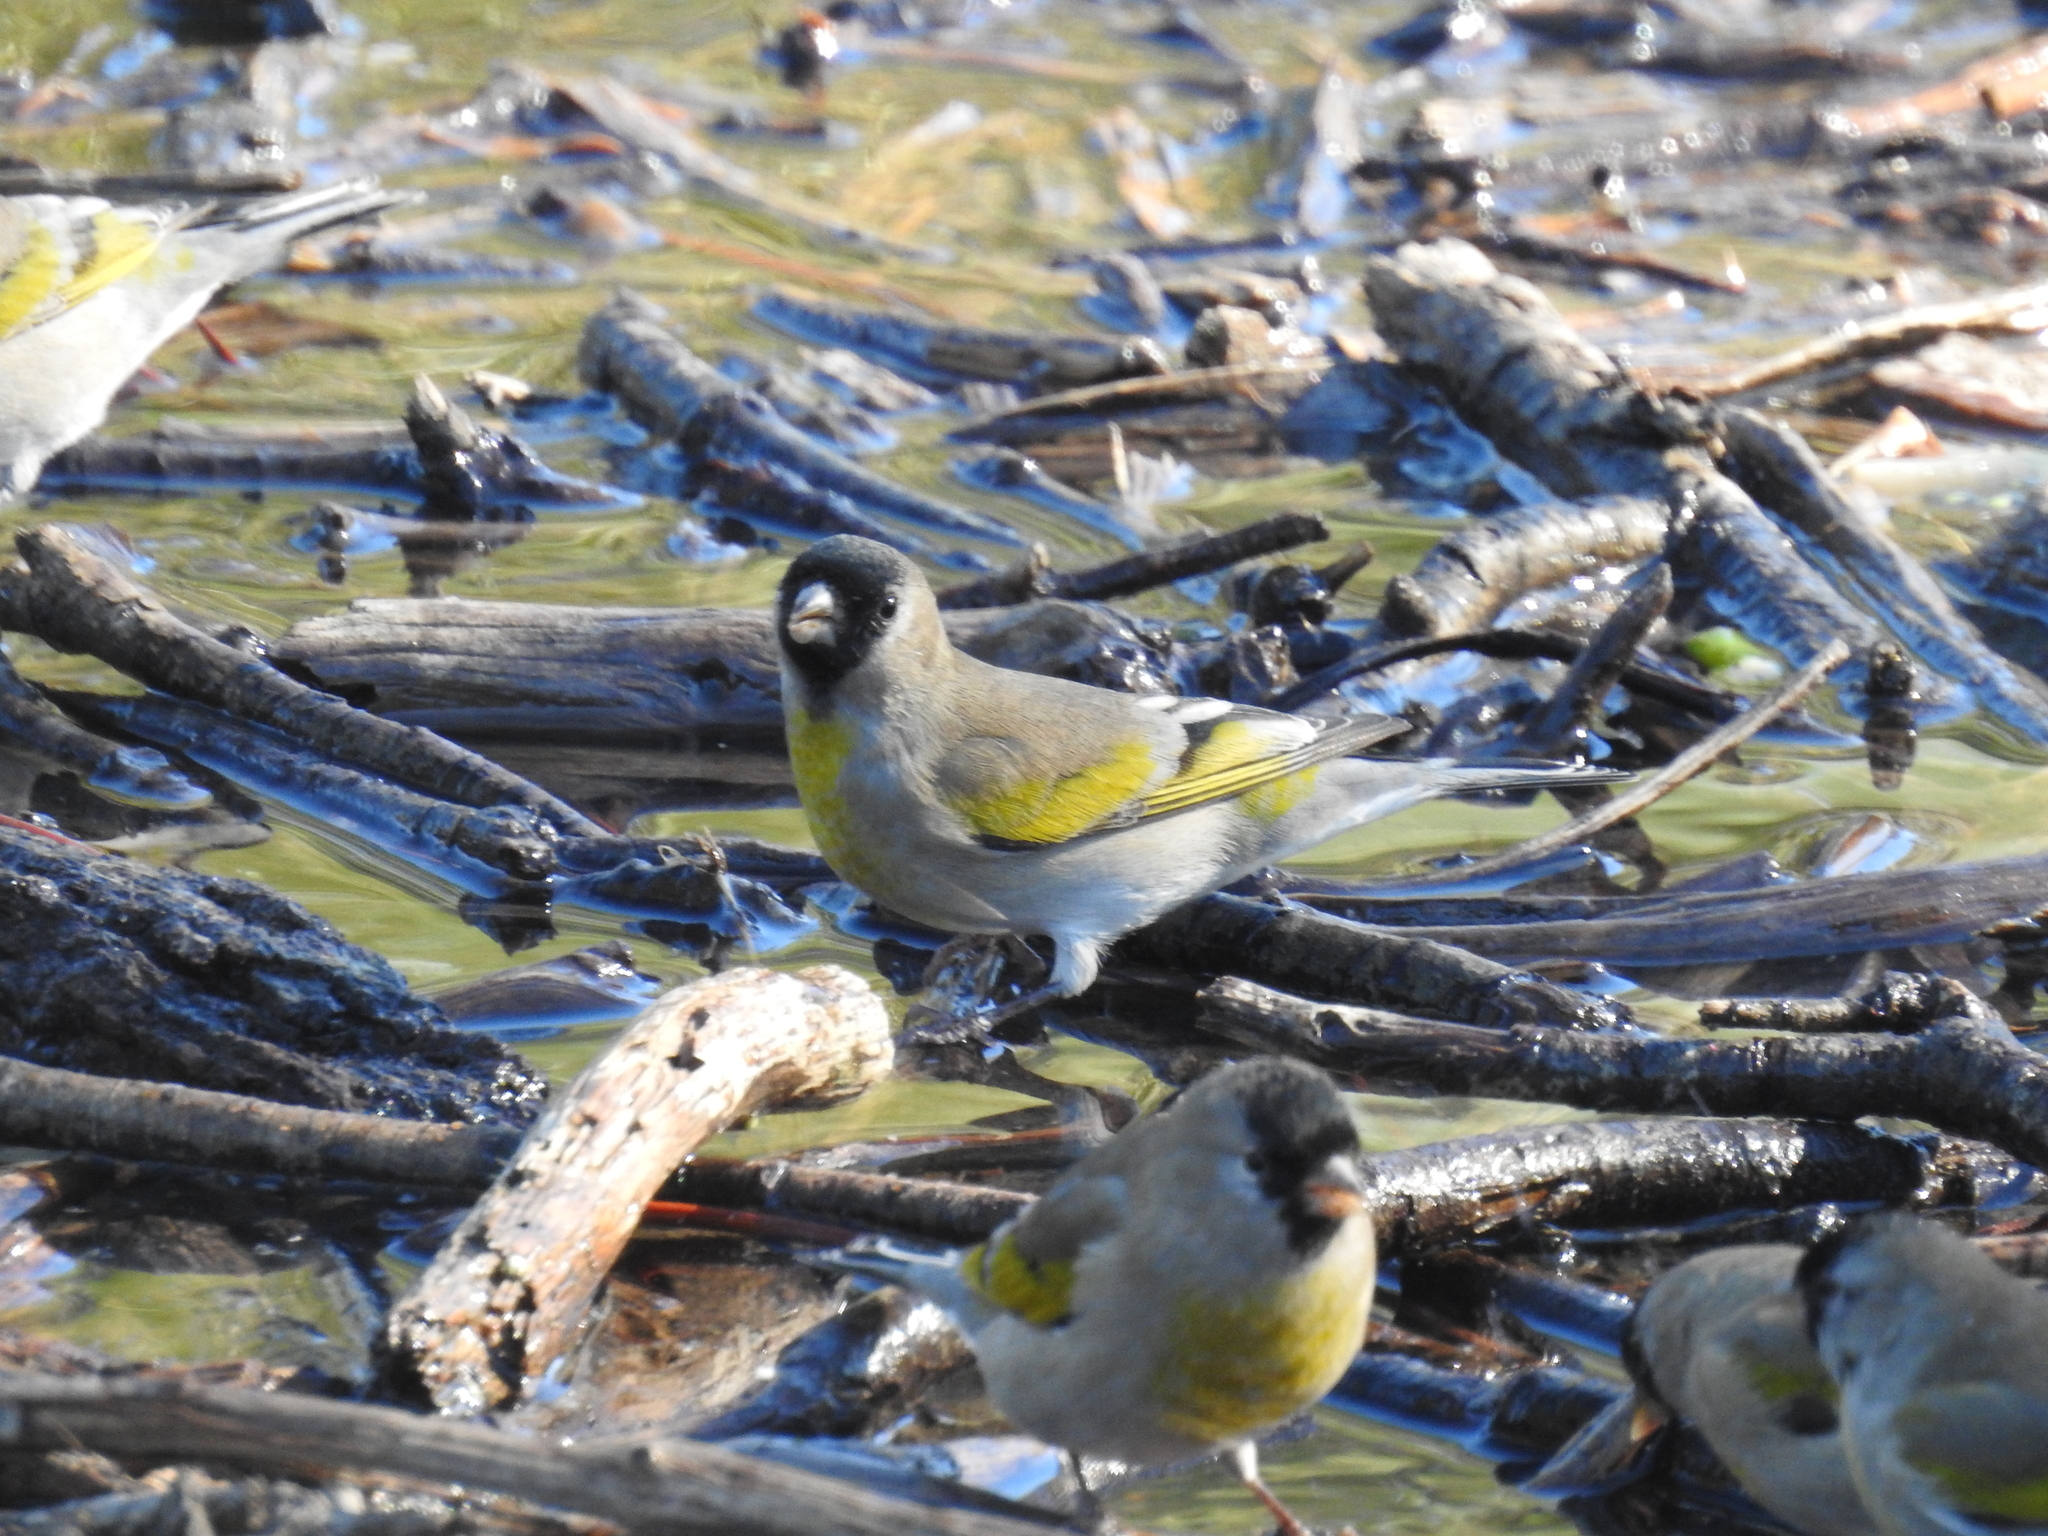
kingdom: Animalia
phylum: Chordata
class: Aves
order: Passeriformes
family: Fringillidae
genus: Spinus
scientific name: Spinus lawrencei
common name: Lawrence's goldfinch
